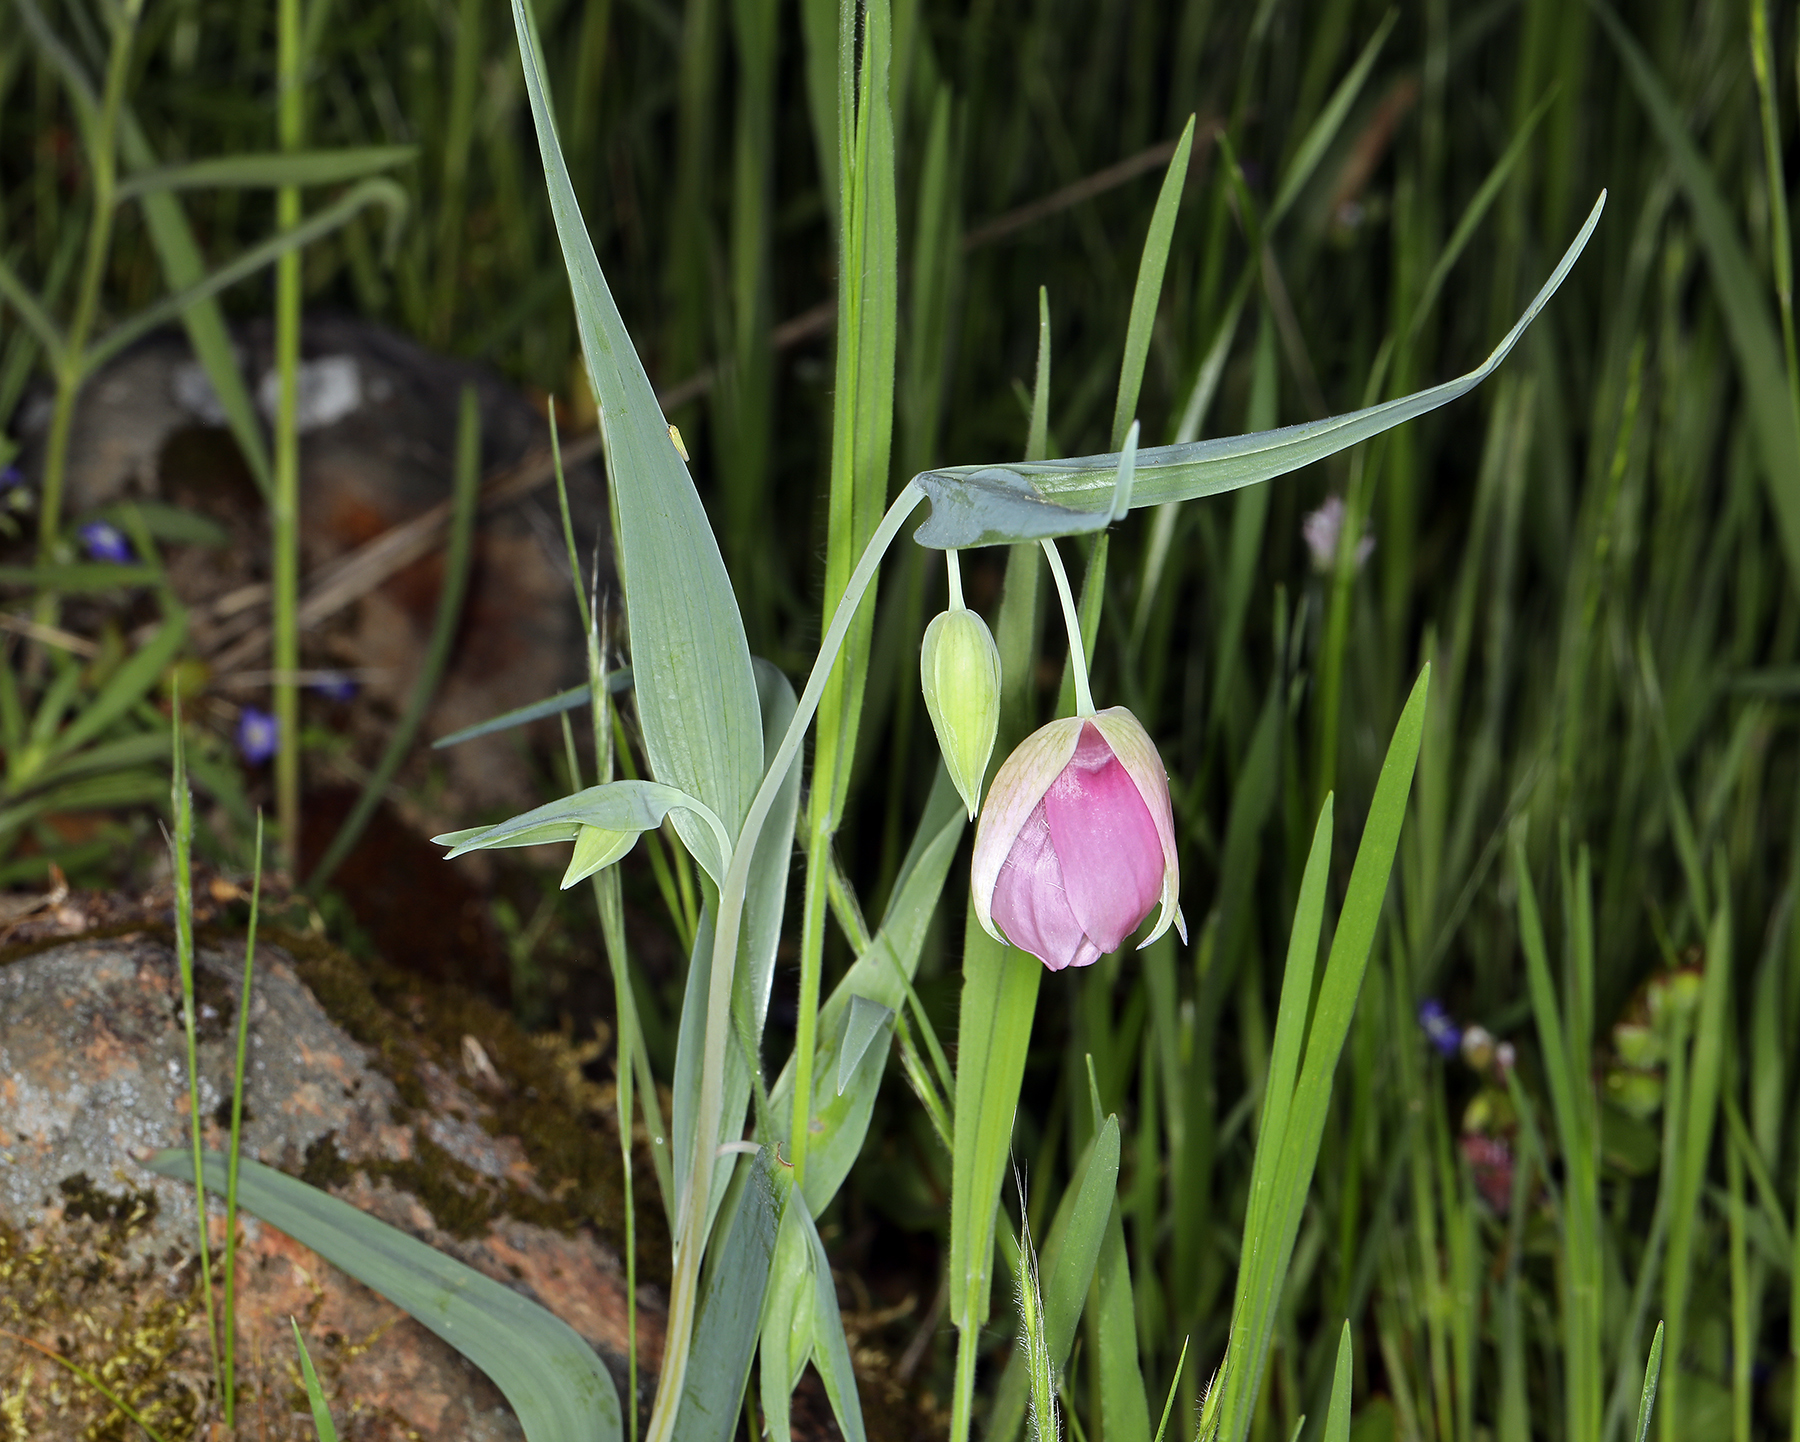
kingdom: Plantae
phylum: Tracheophyta
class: Liliopsida
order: Liliales
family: Liliaceae
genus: Calochortus
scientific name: Calochortus amoenus
